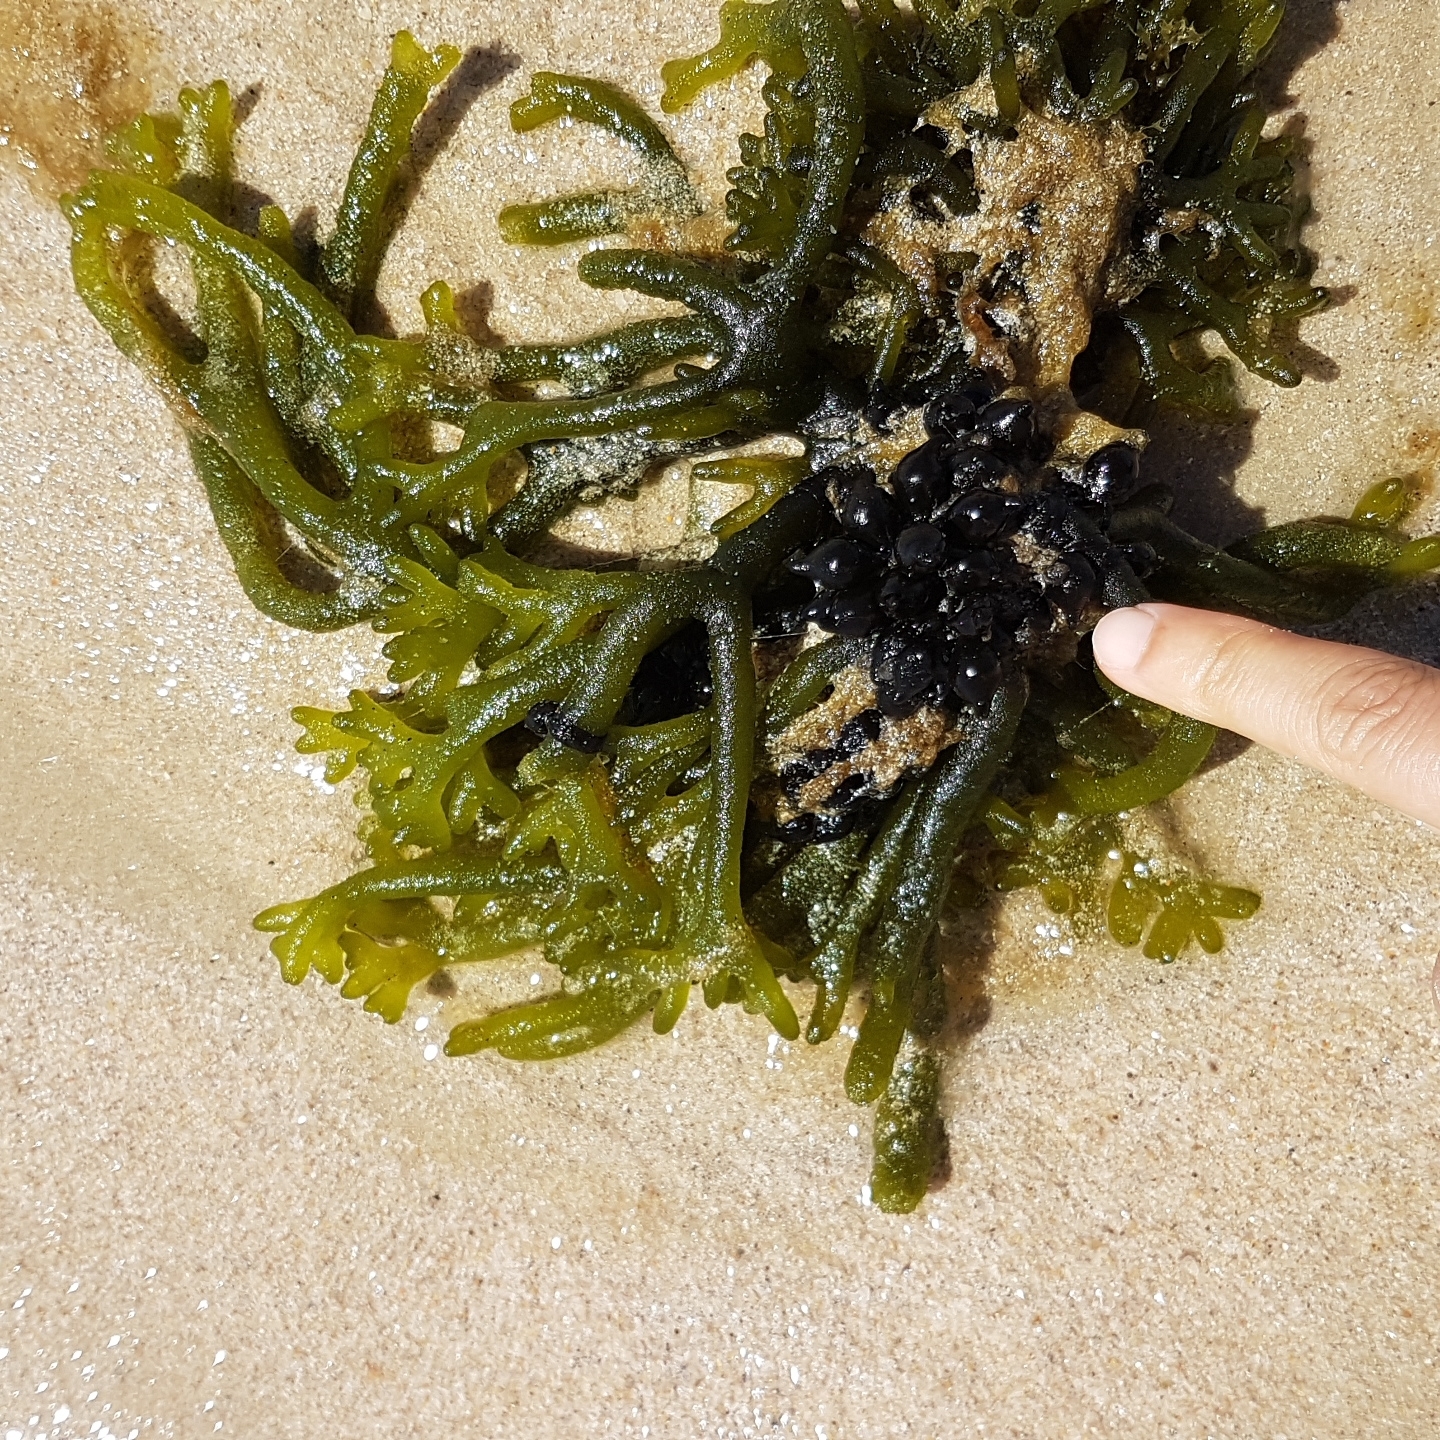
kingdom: Animalia
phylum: Mollusca
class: Cephalopoda
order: Sepiida
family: Sepiidae
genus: Sepia
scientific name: Sepia officinalis
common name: Common cuttlefish
